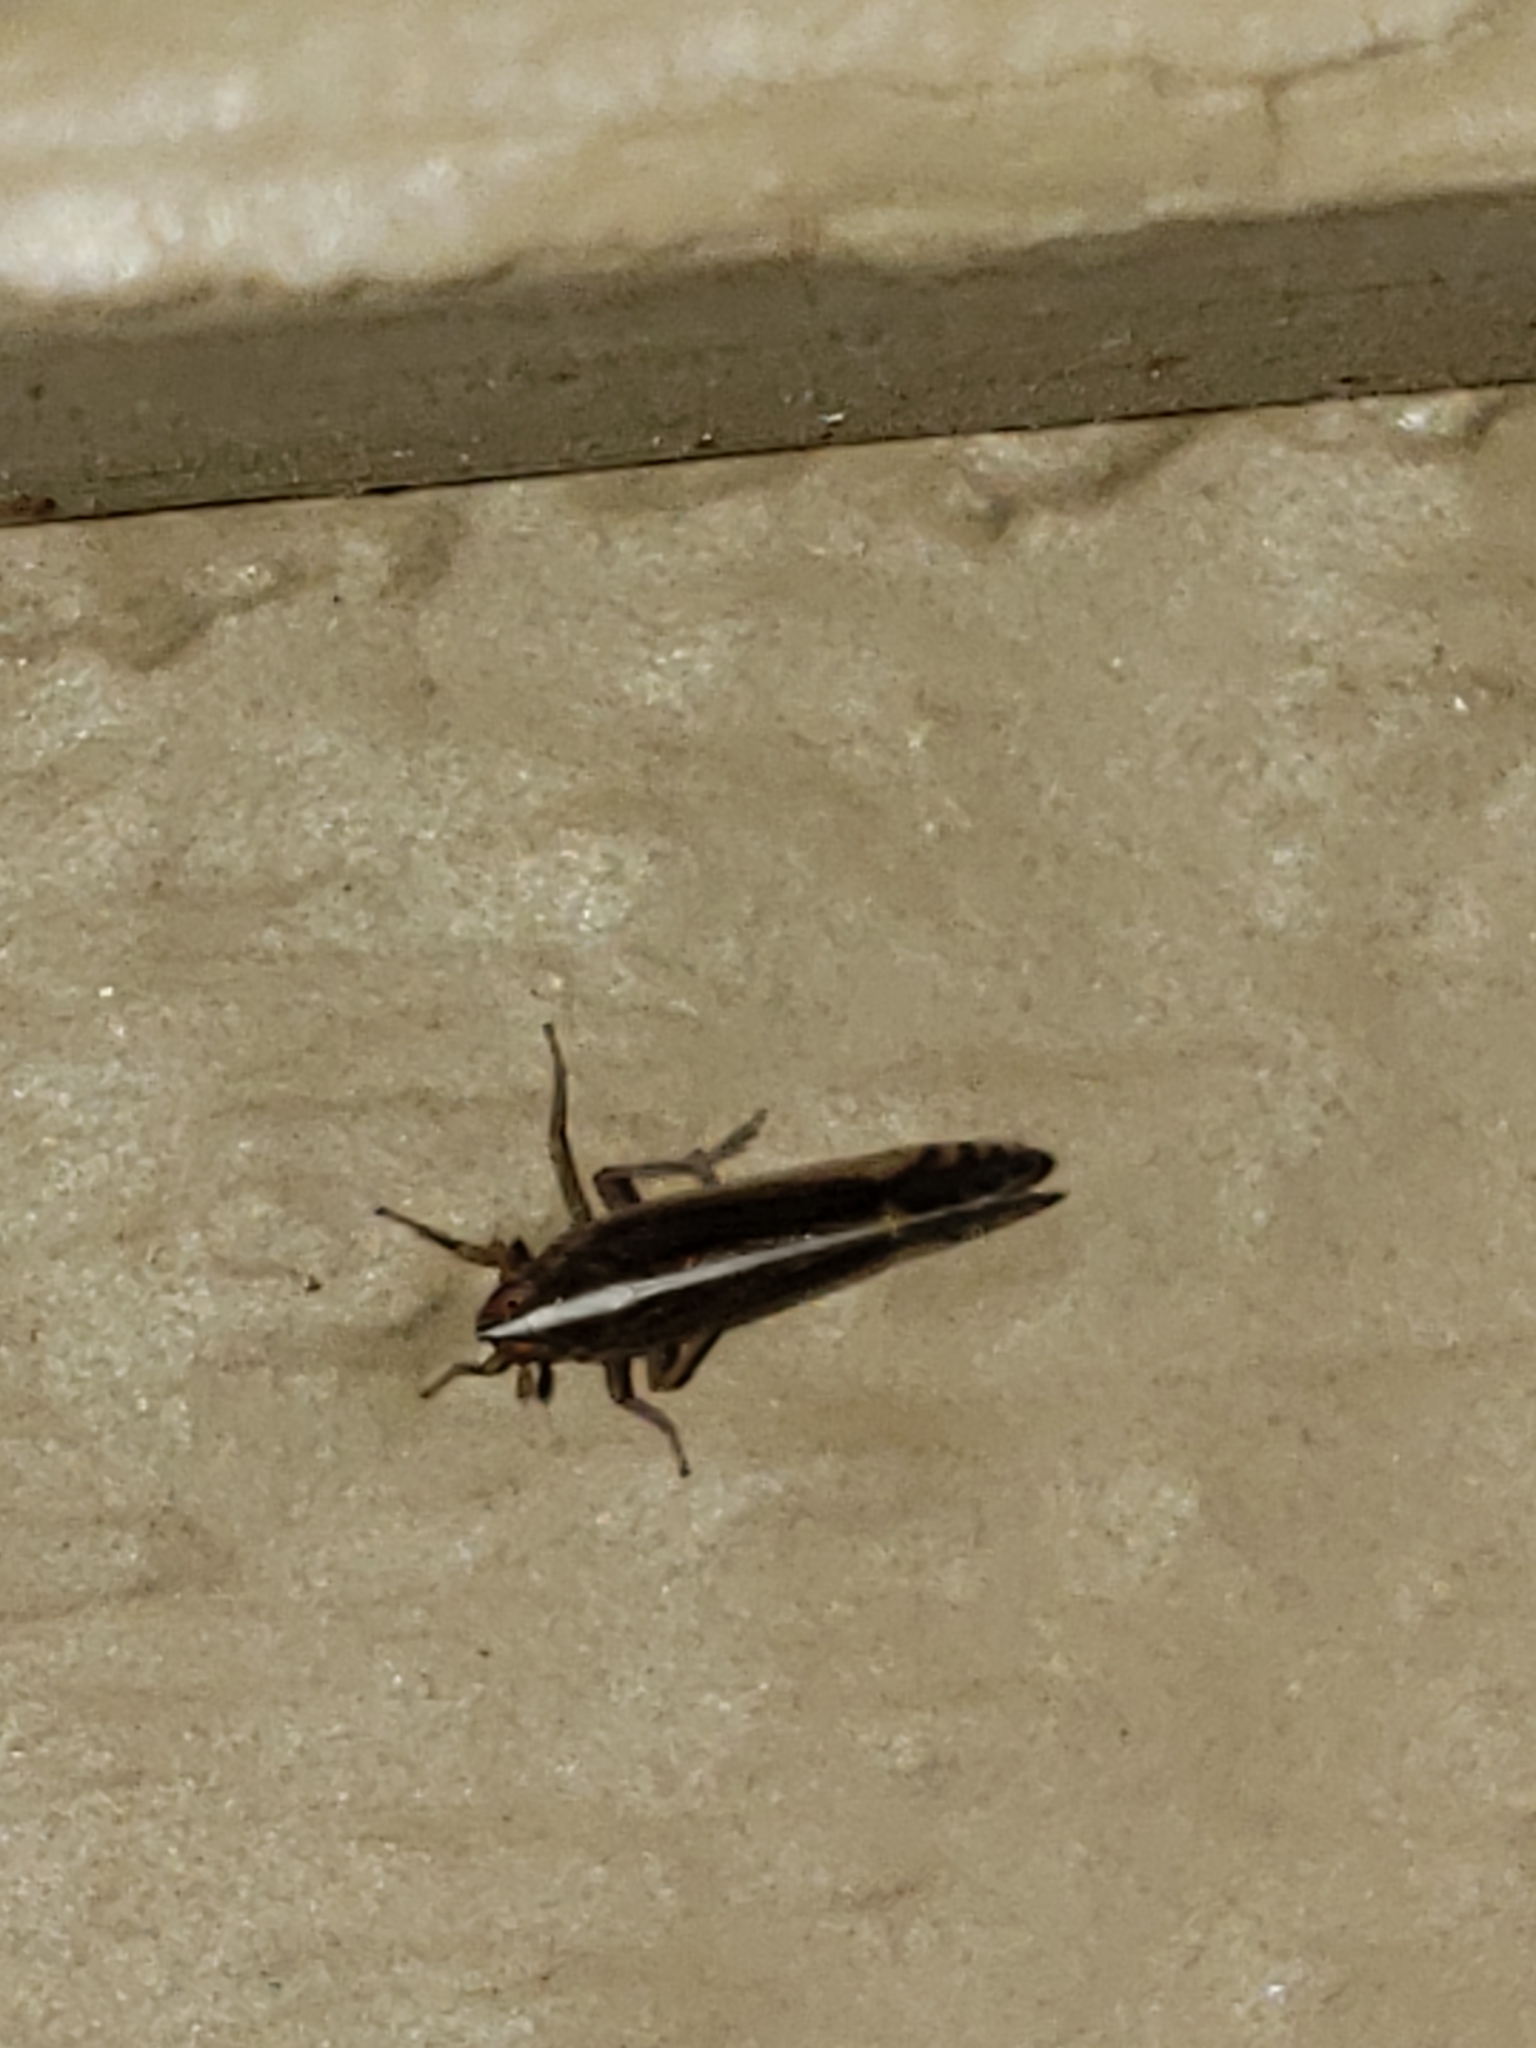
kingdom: Animalia
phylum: Arthropoda
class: Insecta
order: Hemiptera
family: Delphacidae
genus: Stenocranus
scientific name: Stenocranus brunneus
